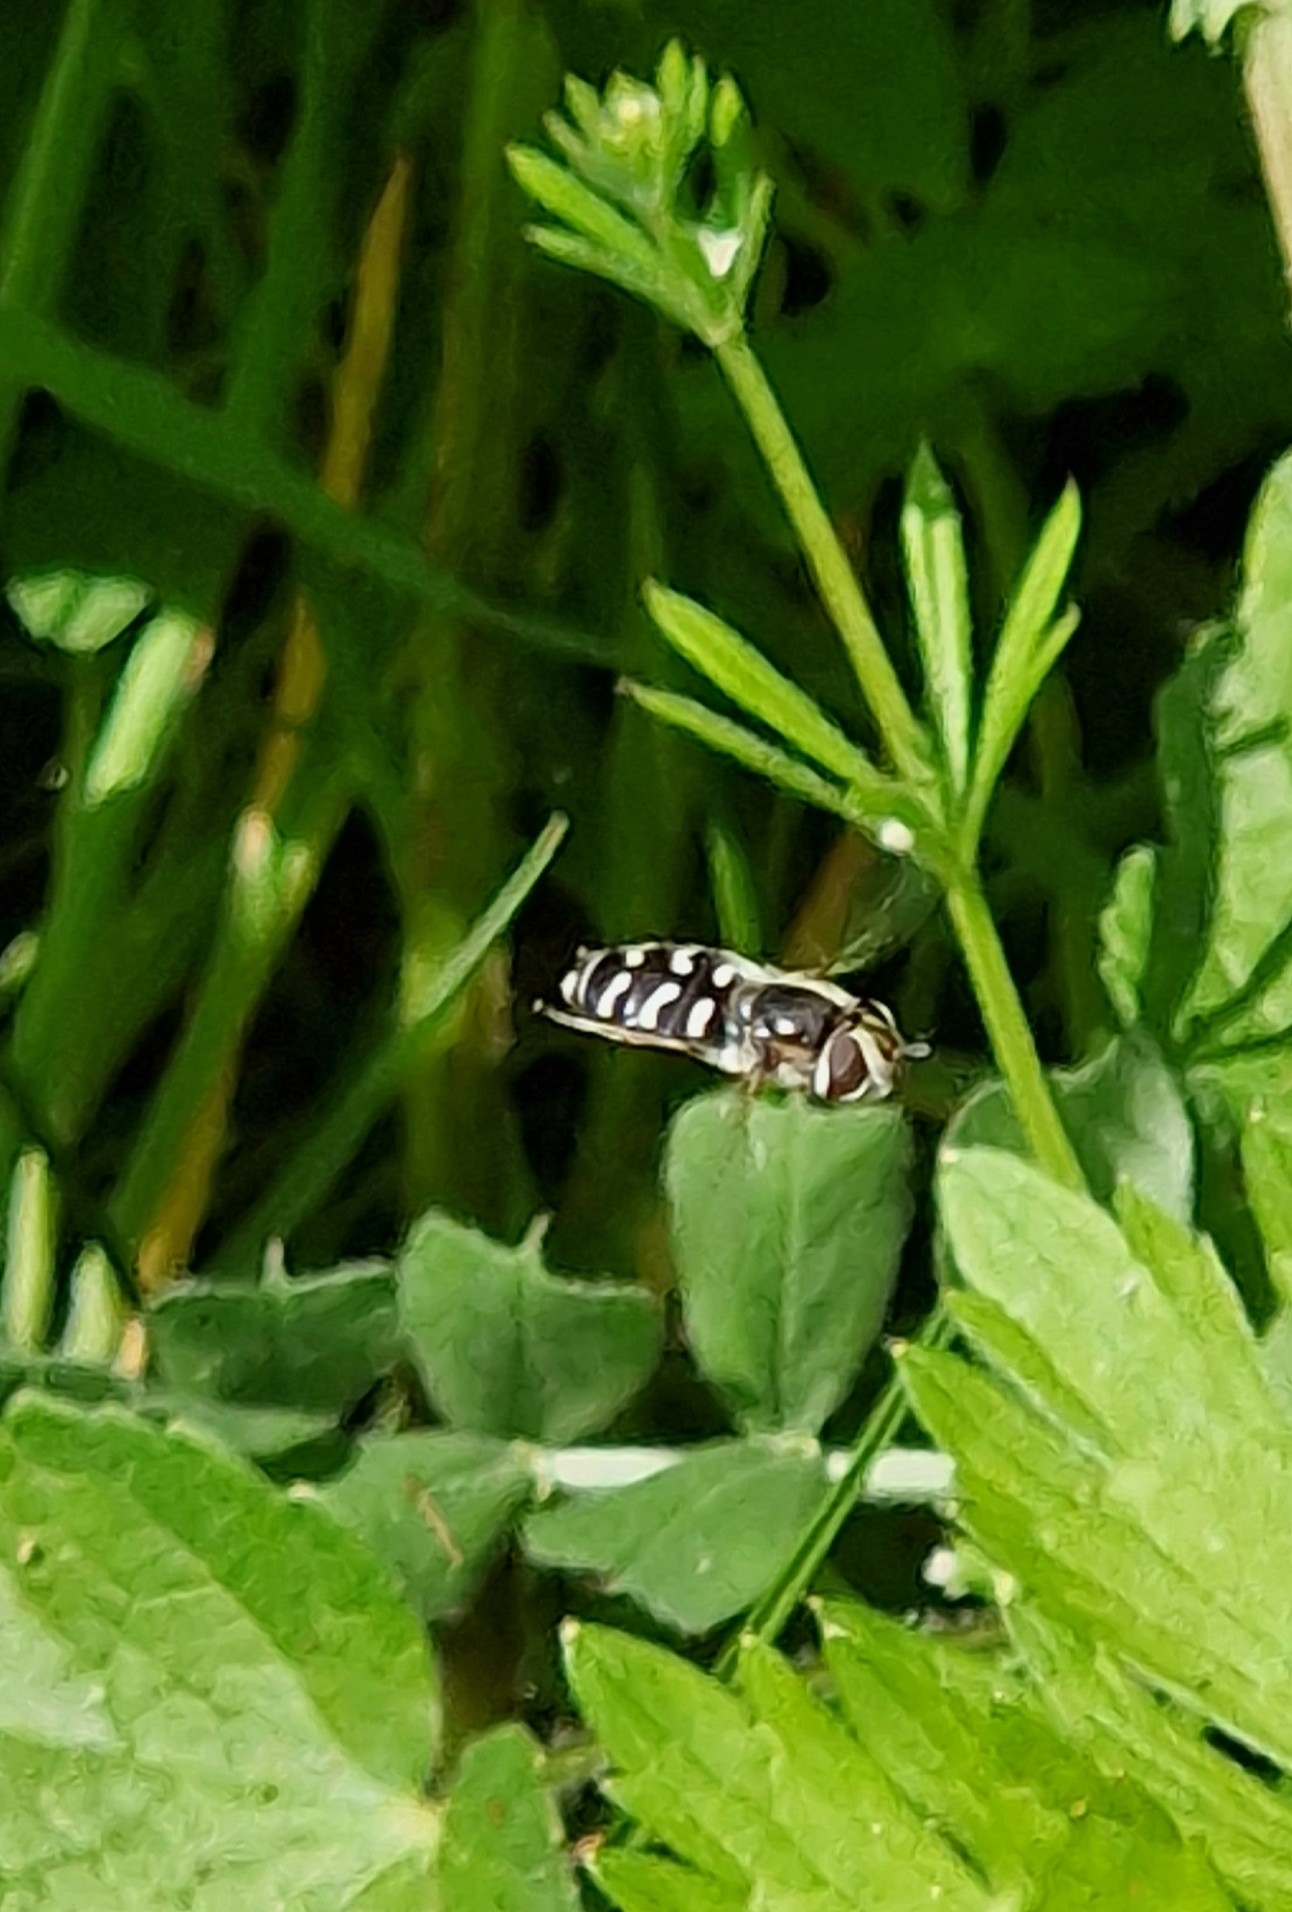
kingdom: Animalia
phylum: Arthropoda
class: Insecta
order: Diptera
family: Syrphidae
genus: Scaeva
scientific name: Scaeva pyrastri
